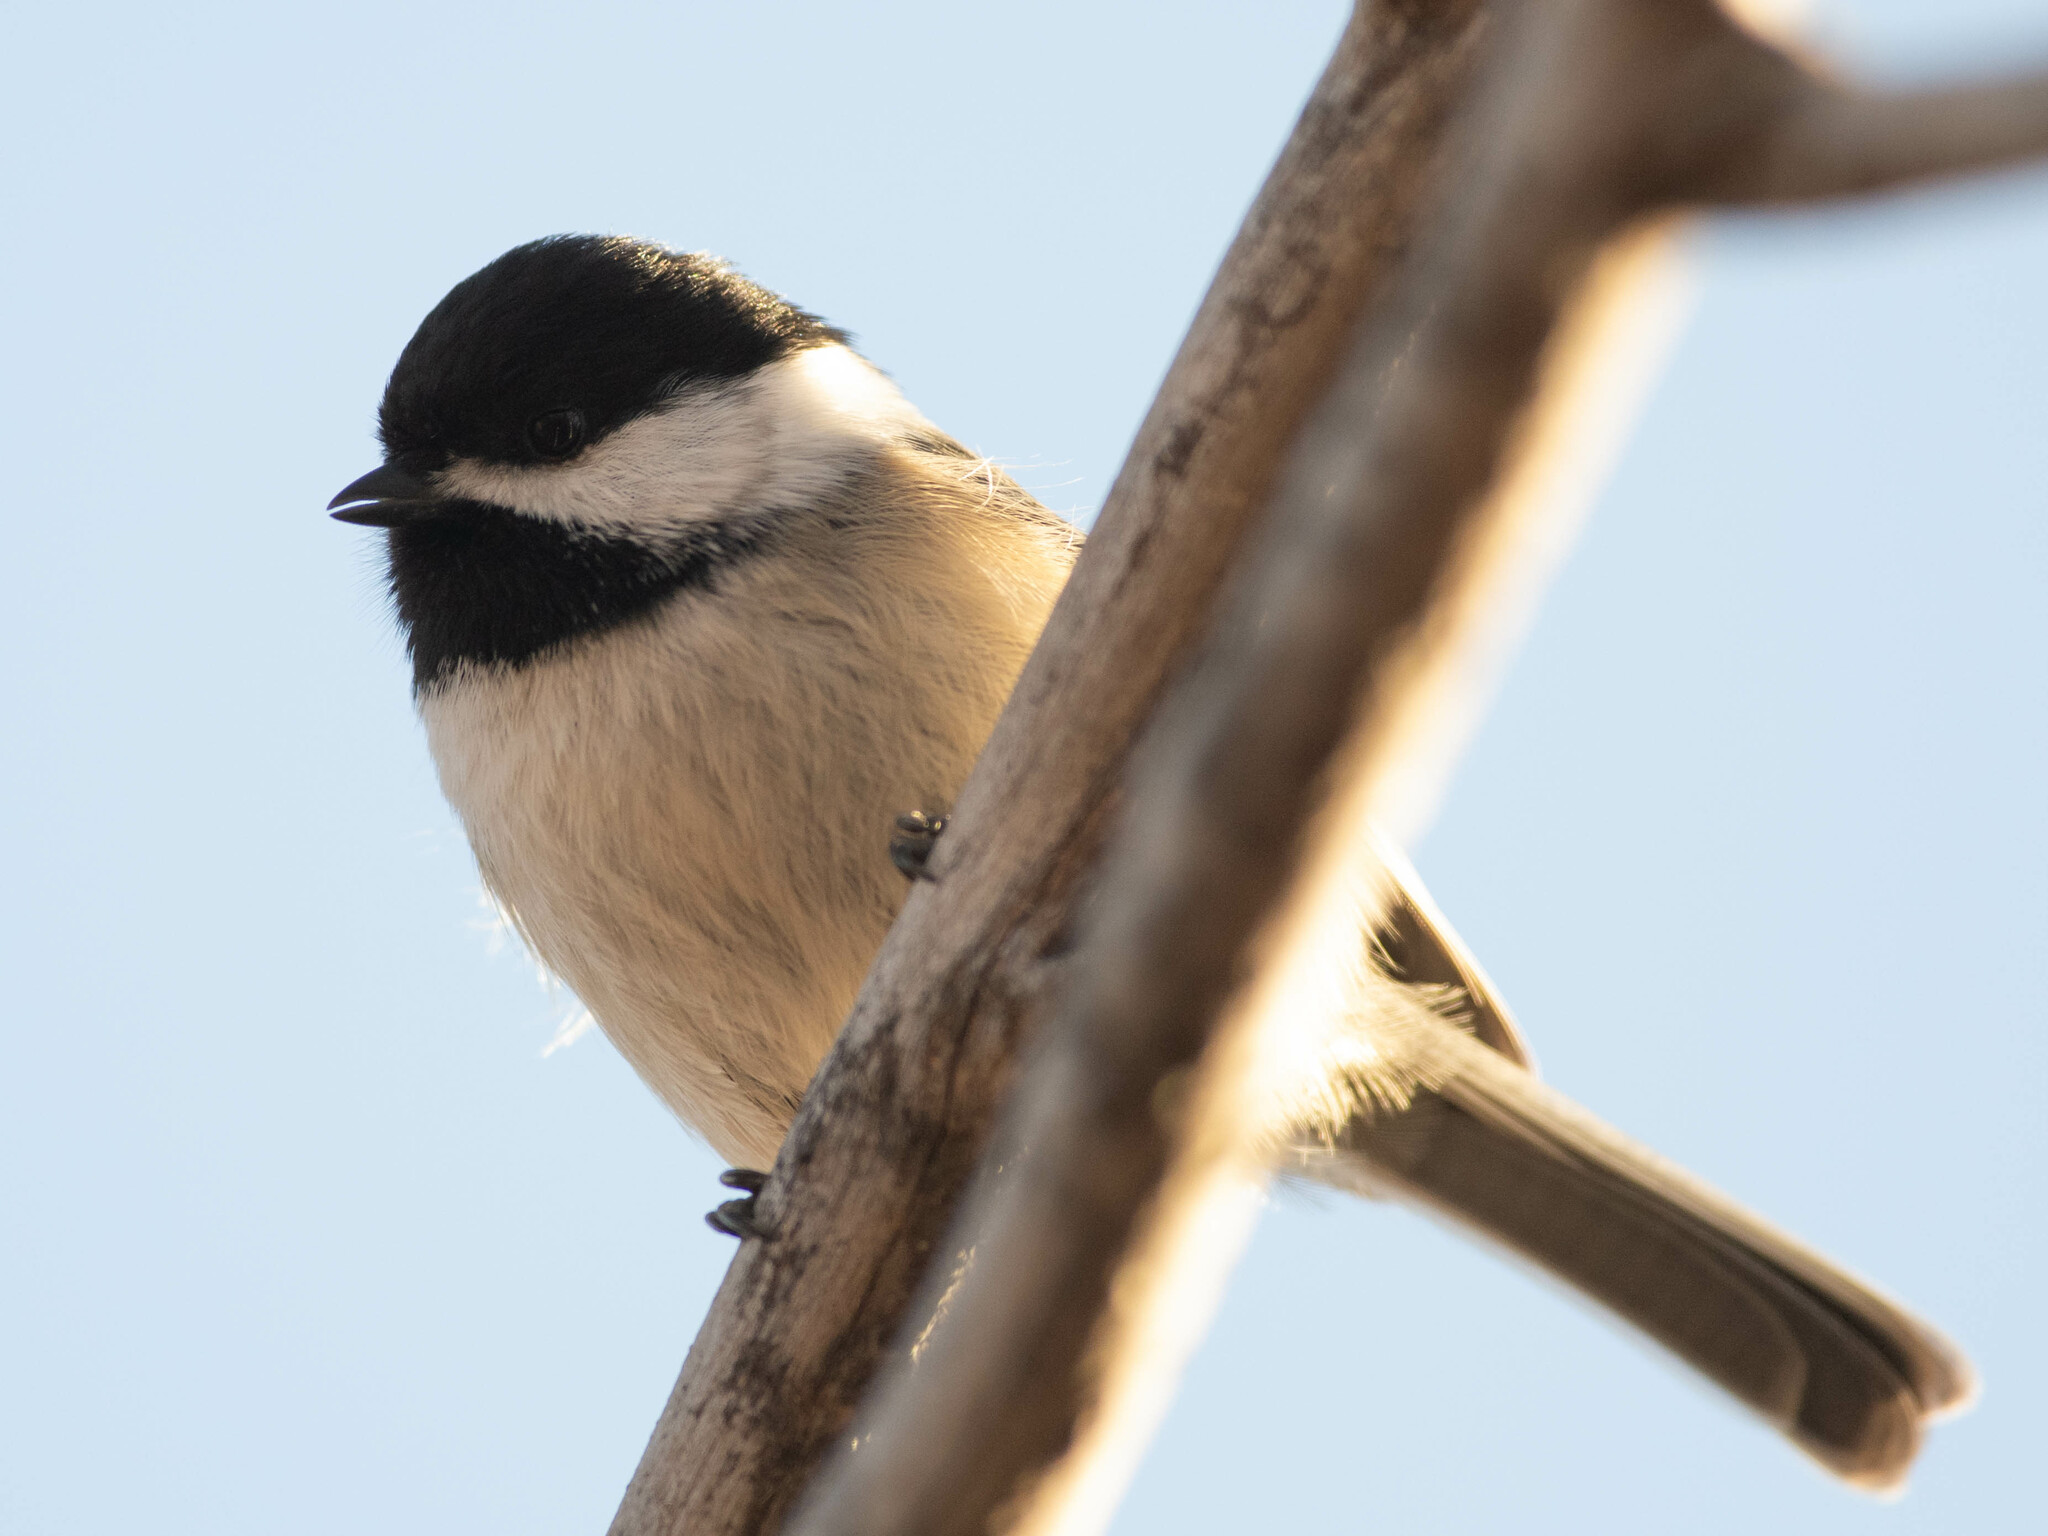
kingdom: Animalia
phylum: Chordata
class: Aves
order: Passeriformes
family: Paridae
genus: Poecile
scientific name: Poecile atricapillus
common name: Black-capped chickadee
